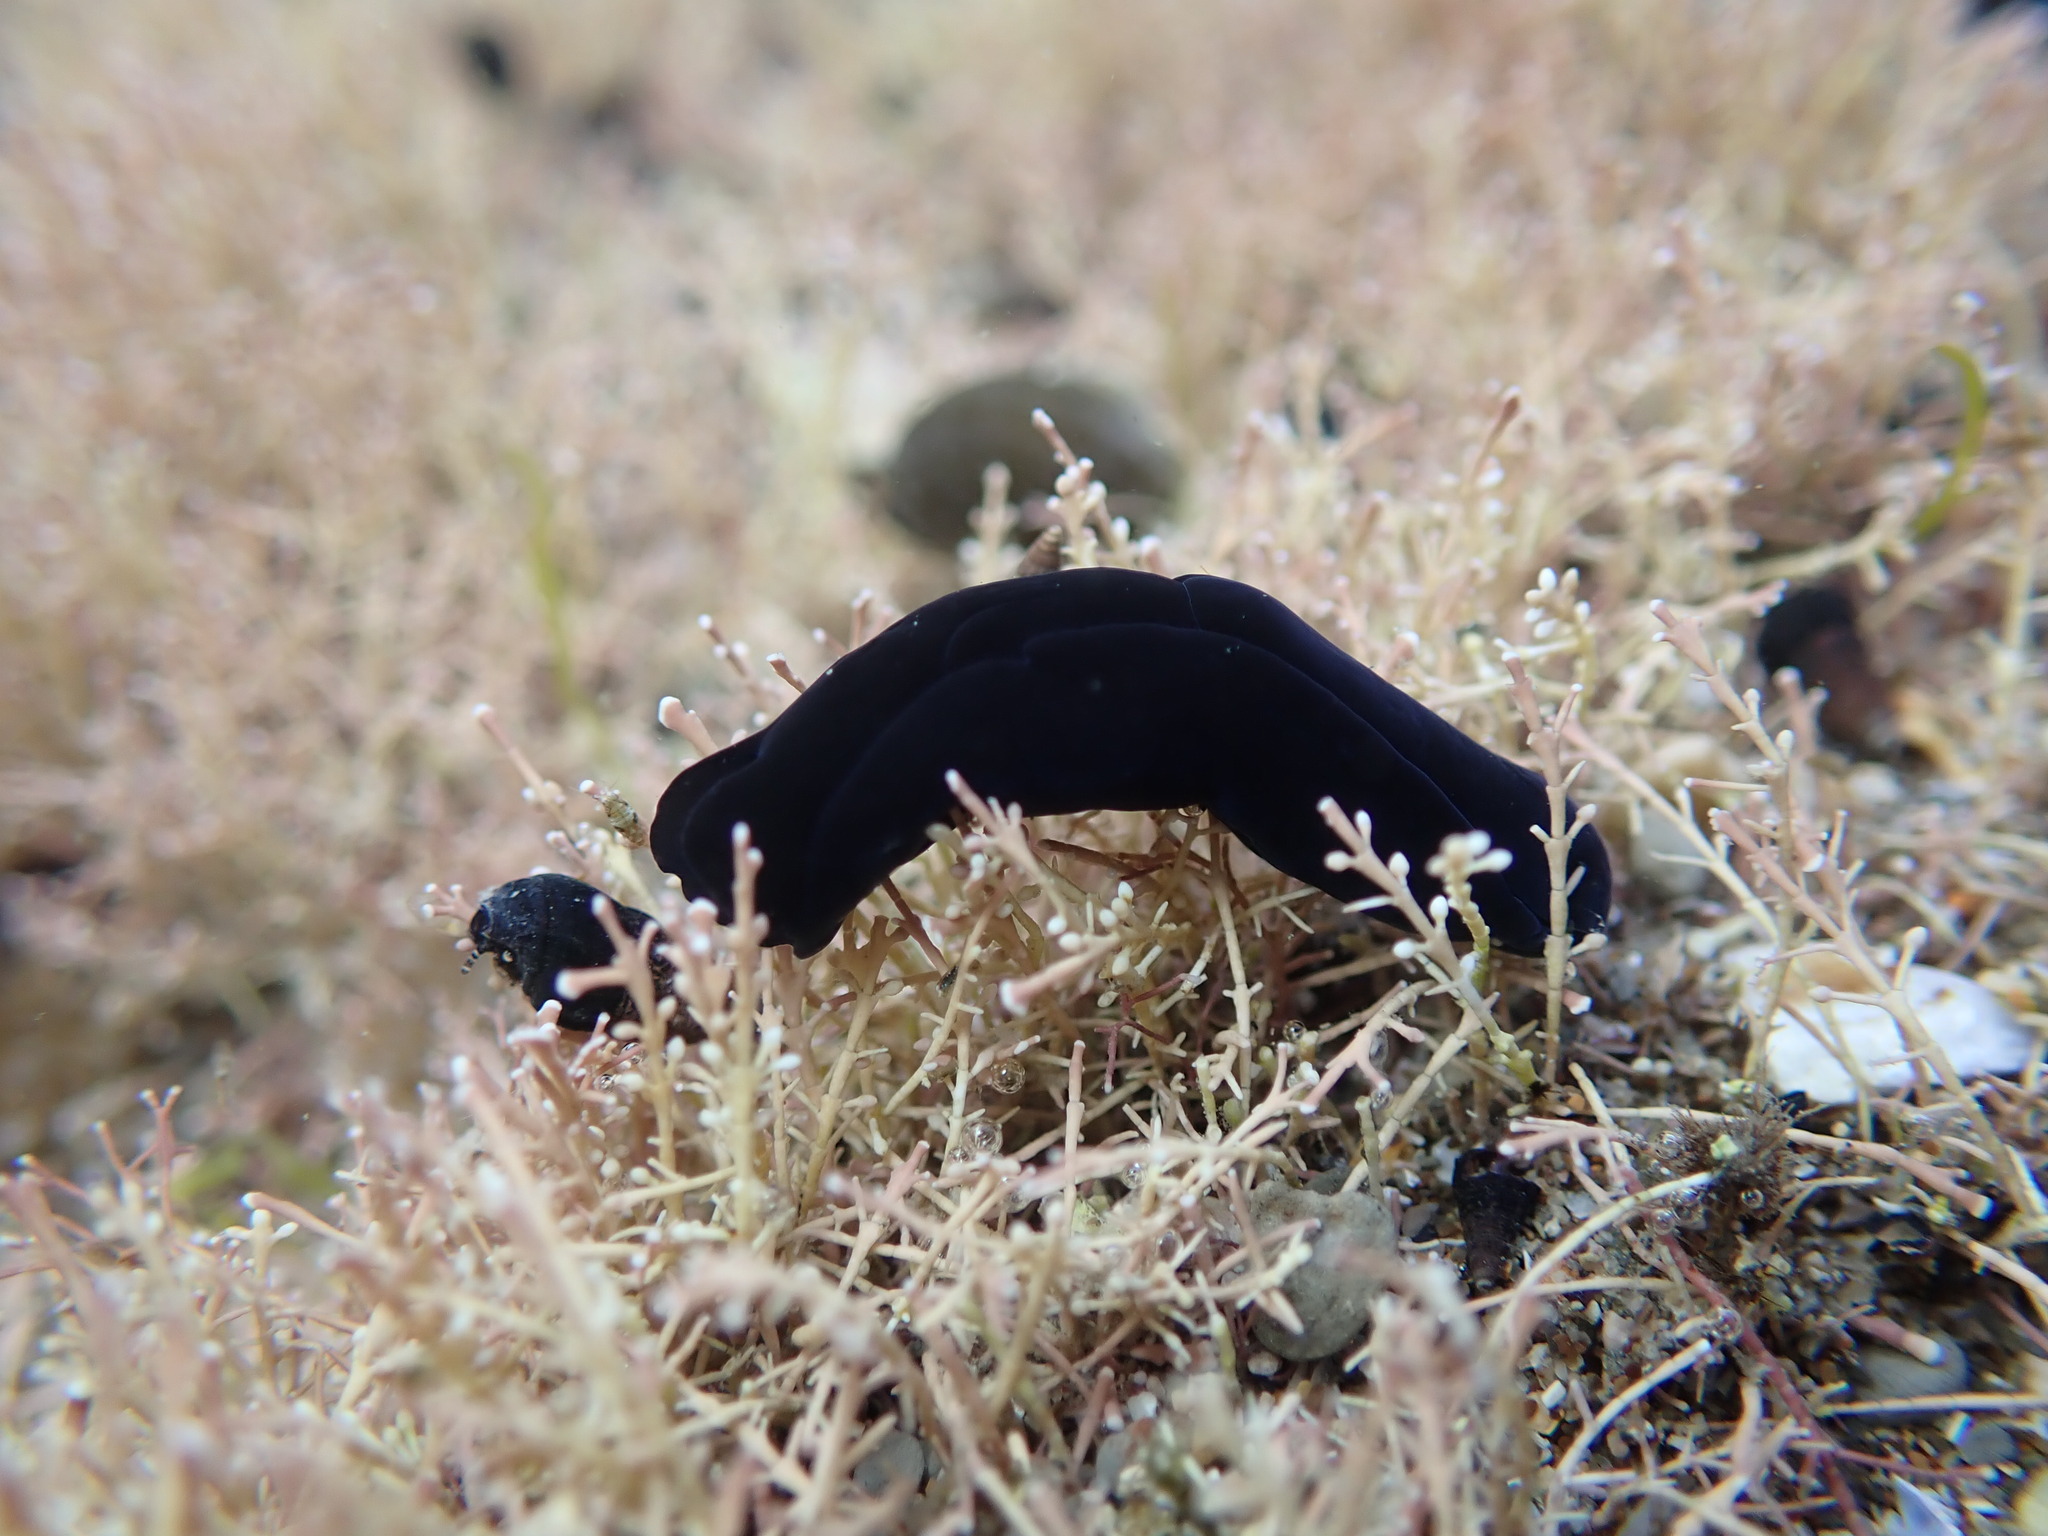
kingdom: Animalia
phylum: Mollusca
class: Gastropoda
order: Cephalaspidea
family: Aglajidae
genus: Melanochlamys
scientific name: Melanochlamys cylindrica
